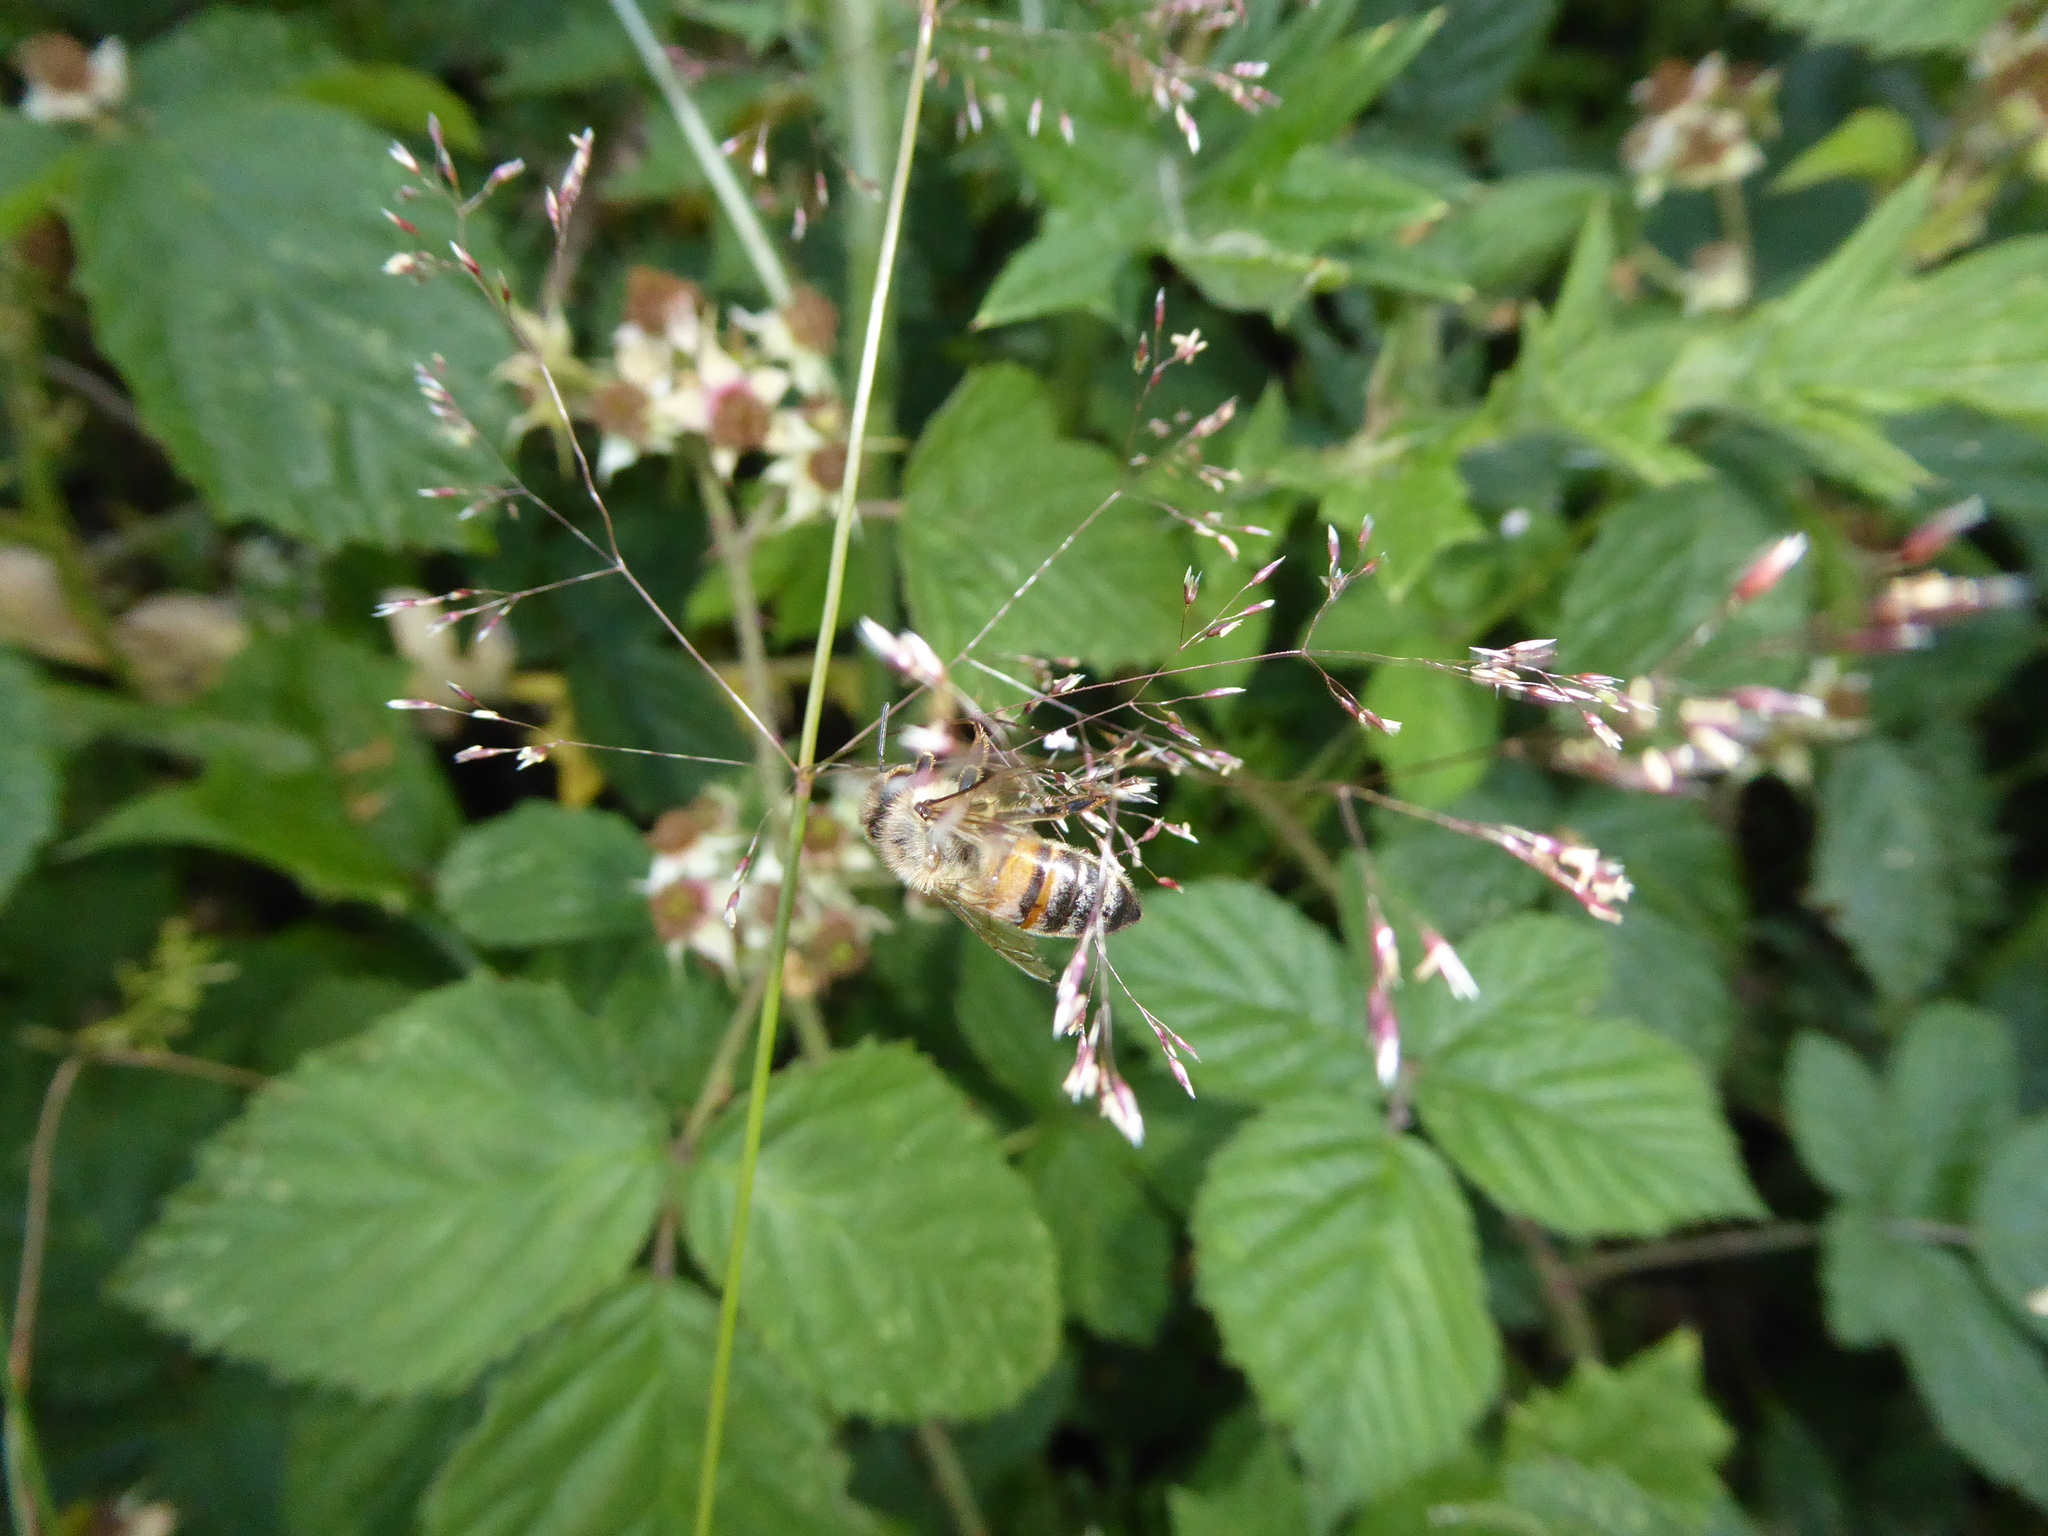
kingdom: Animalia
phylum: Arthropoda
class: Insecta
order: Hymenoptera
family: Apidae
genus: Apis
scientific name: Apis mellifera
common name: Honey bee
